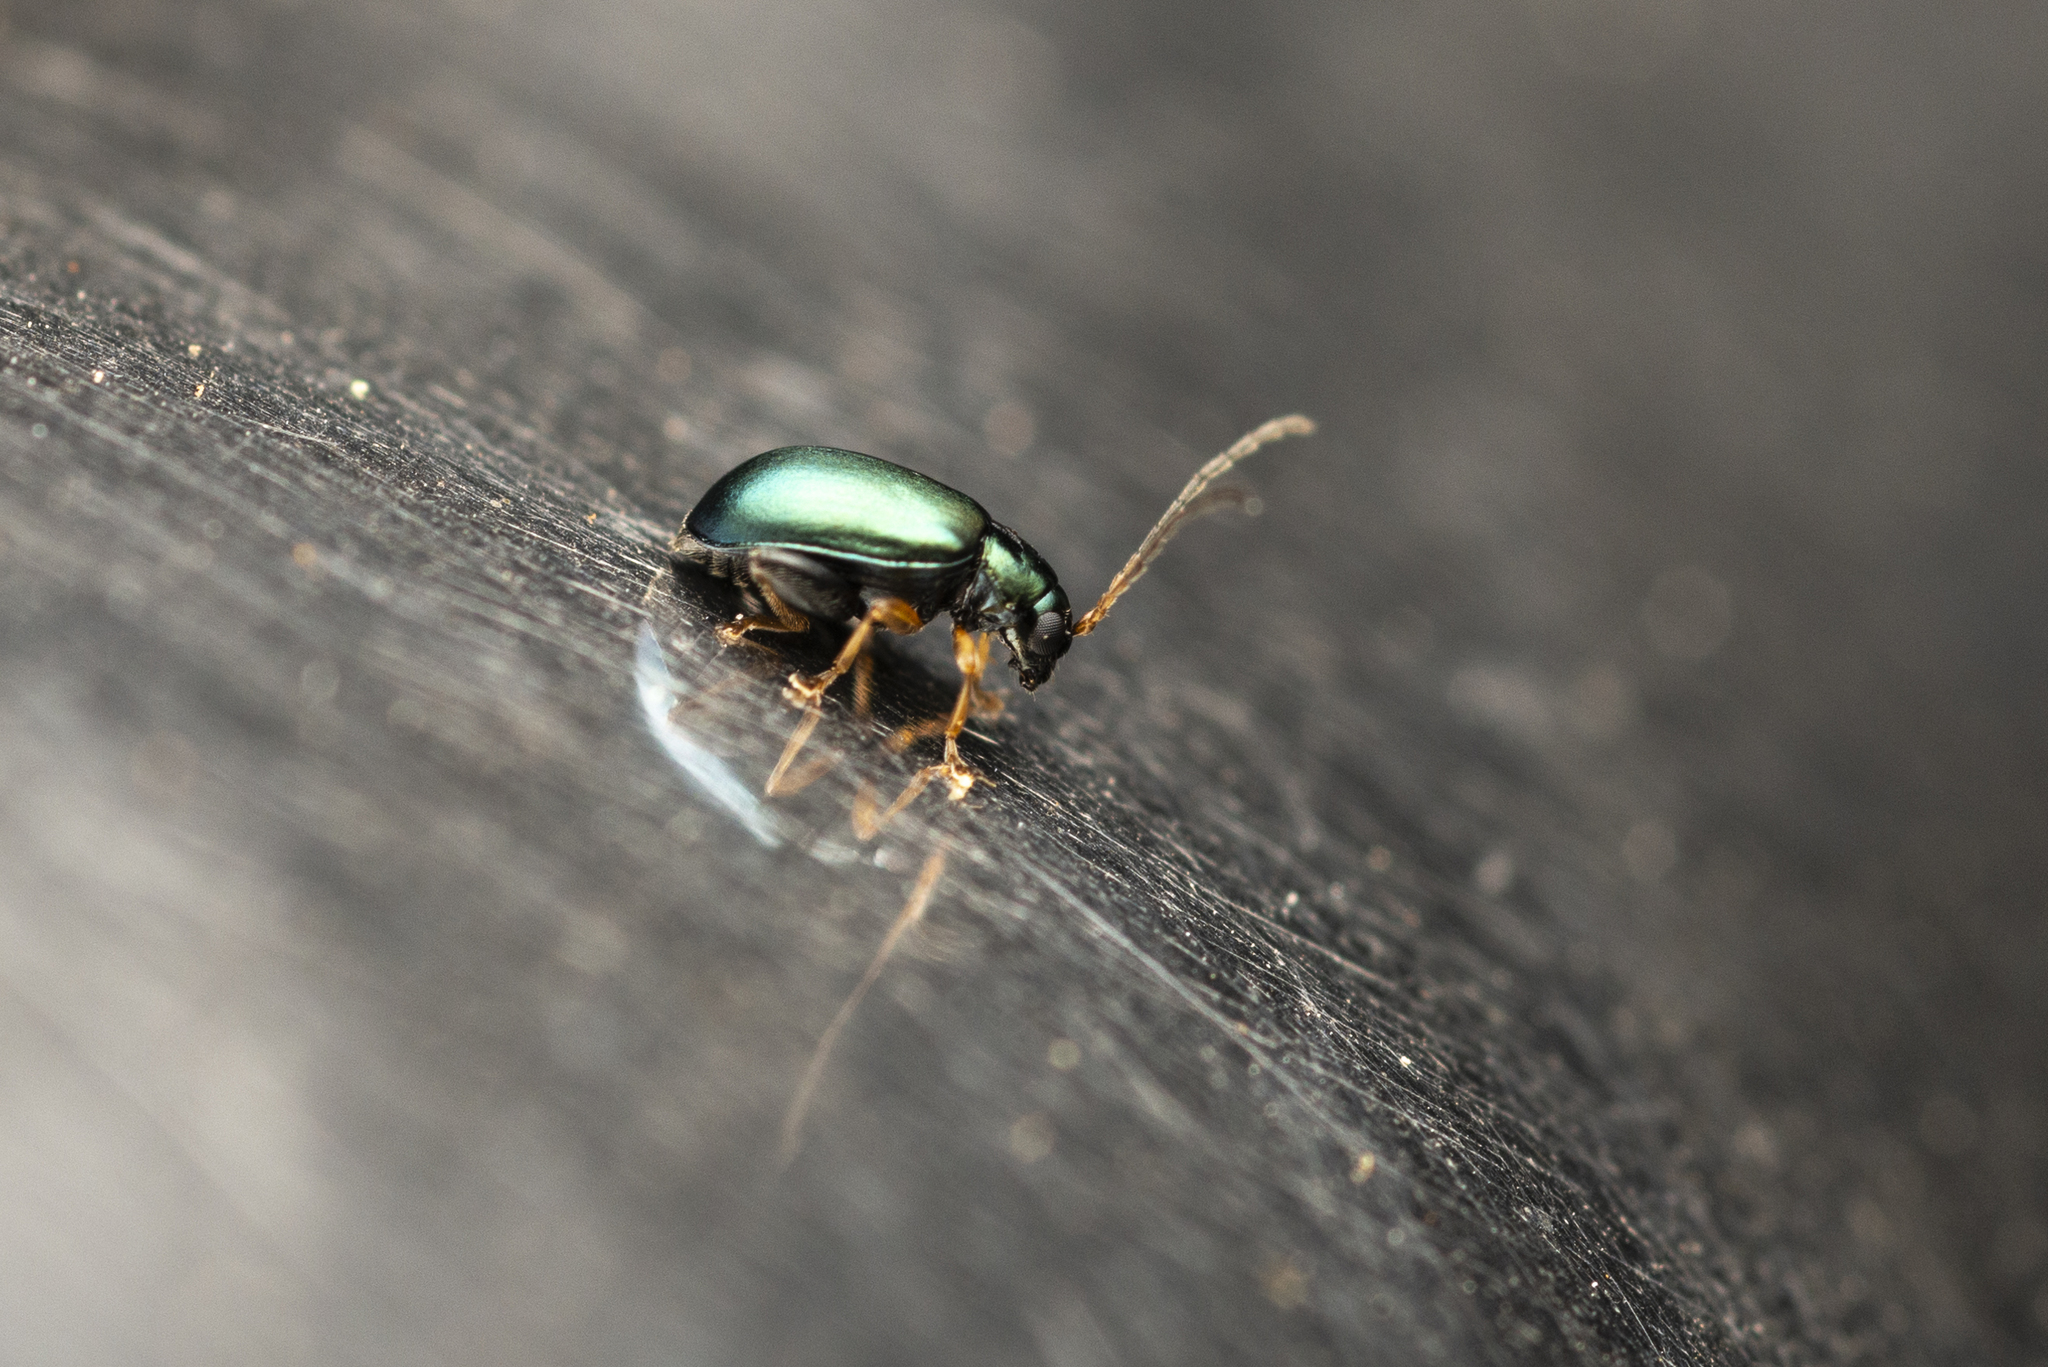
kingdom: Animalia
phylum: Arthropoda
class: Insecta
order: Coleoptera
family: Chrysomelidae
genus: Aphthona
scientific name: Aphthona strigosa
